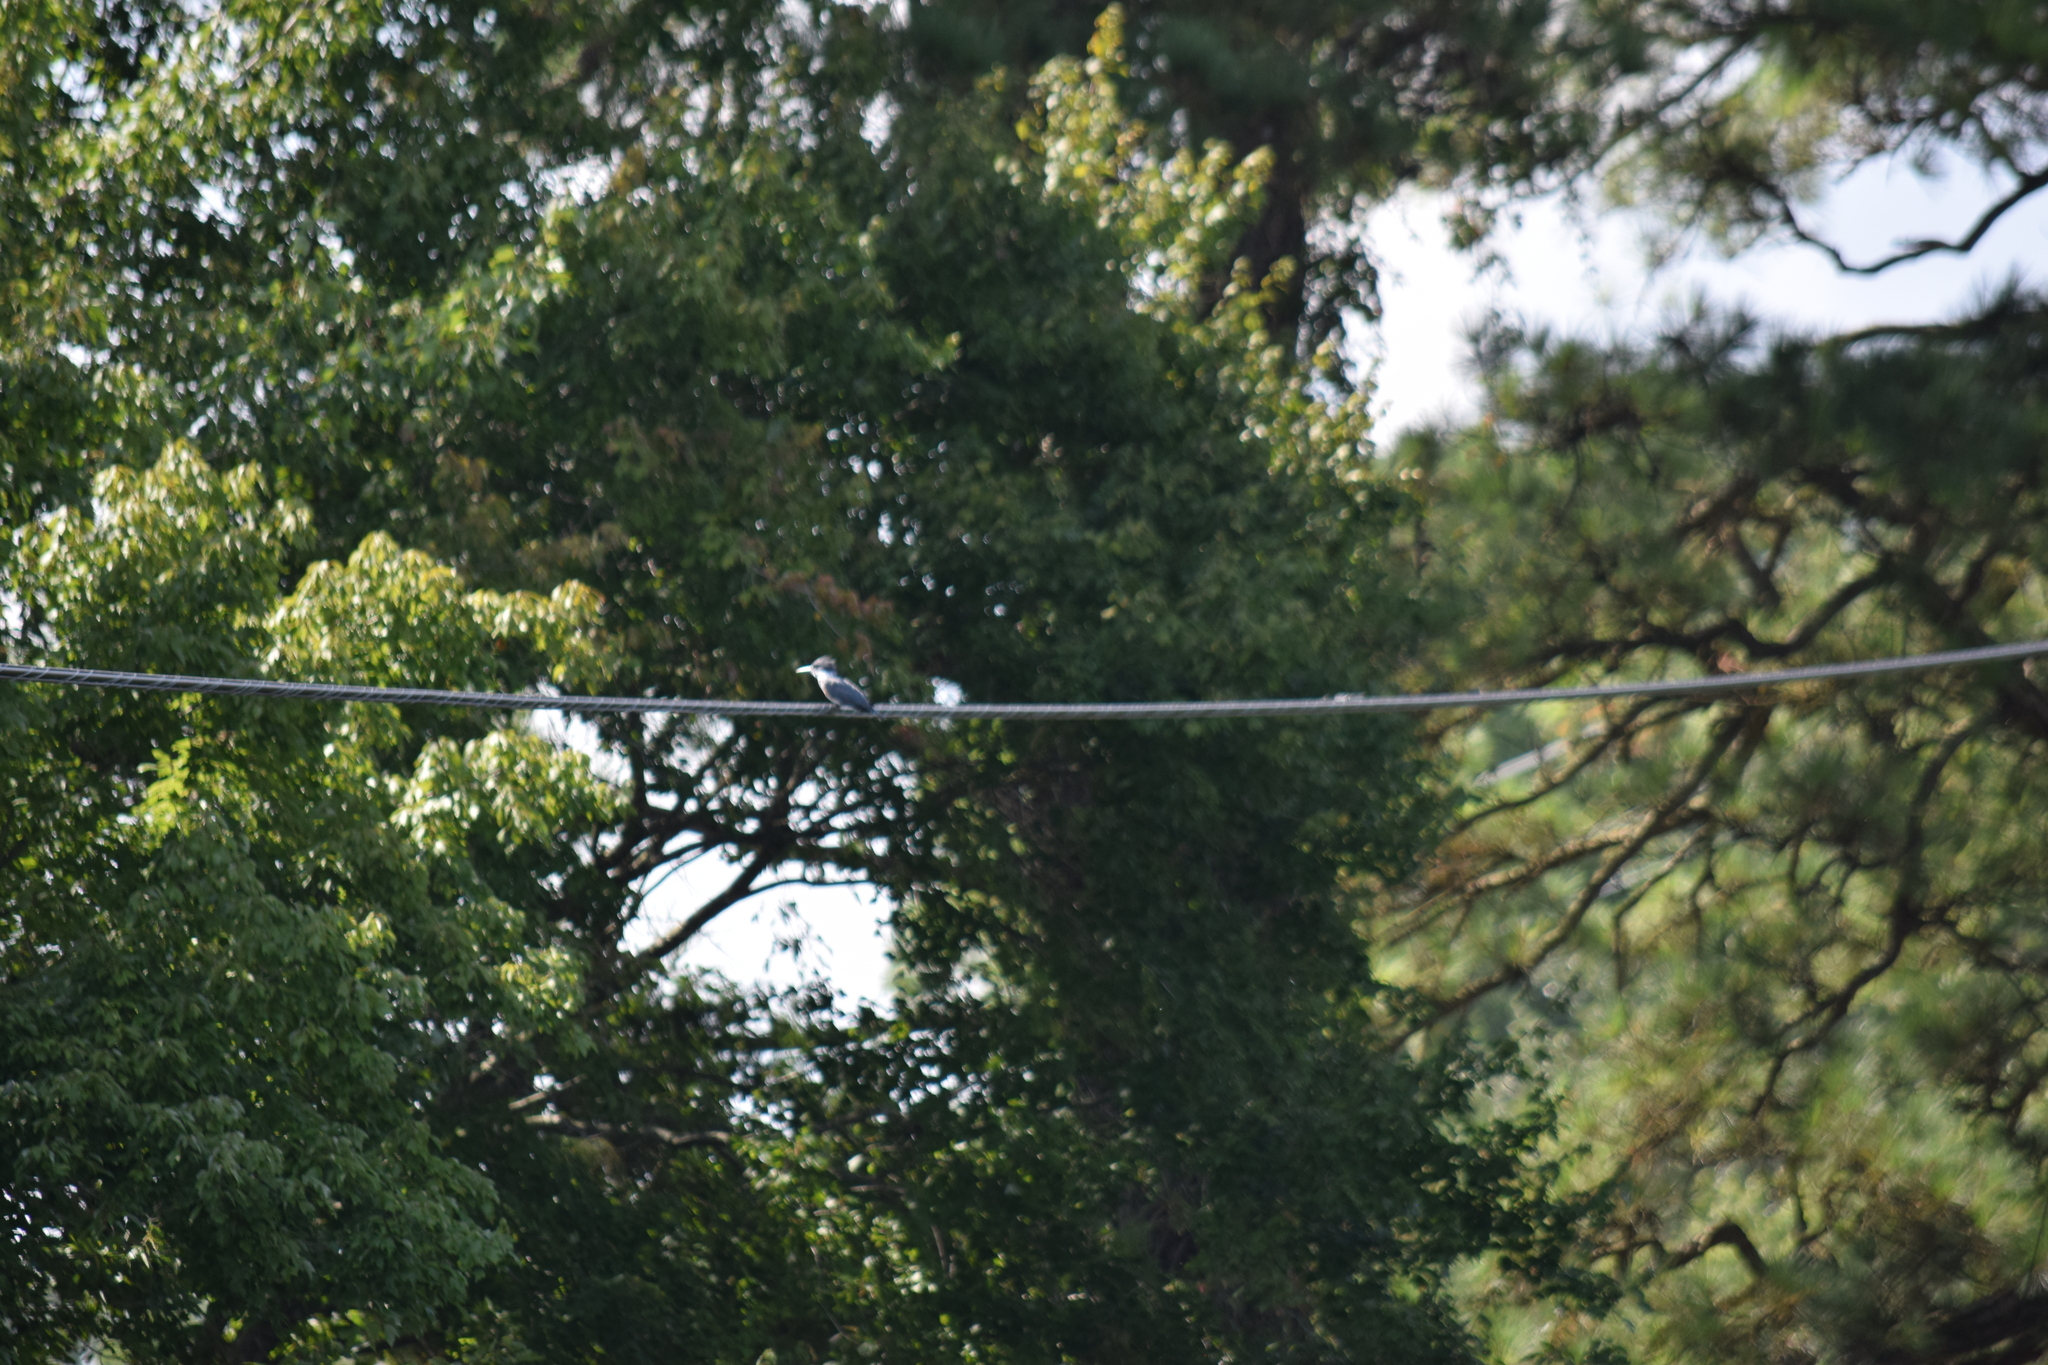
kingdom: Animalia
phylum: Chordata
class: Aves
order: Coraciiformes
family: Alcedinidae
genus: Megaceryle
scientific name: Megaceryle alcyon
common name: Belted kingfisher
